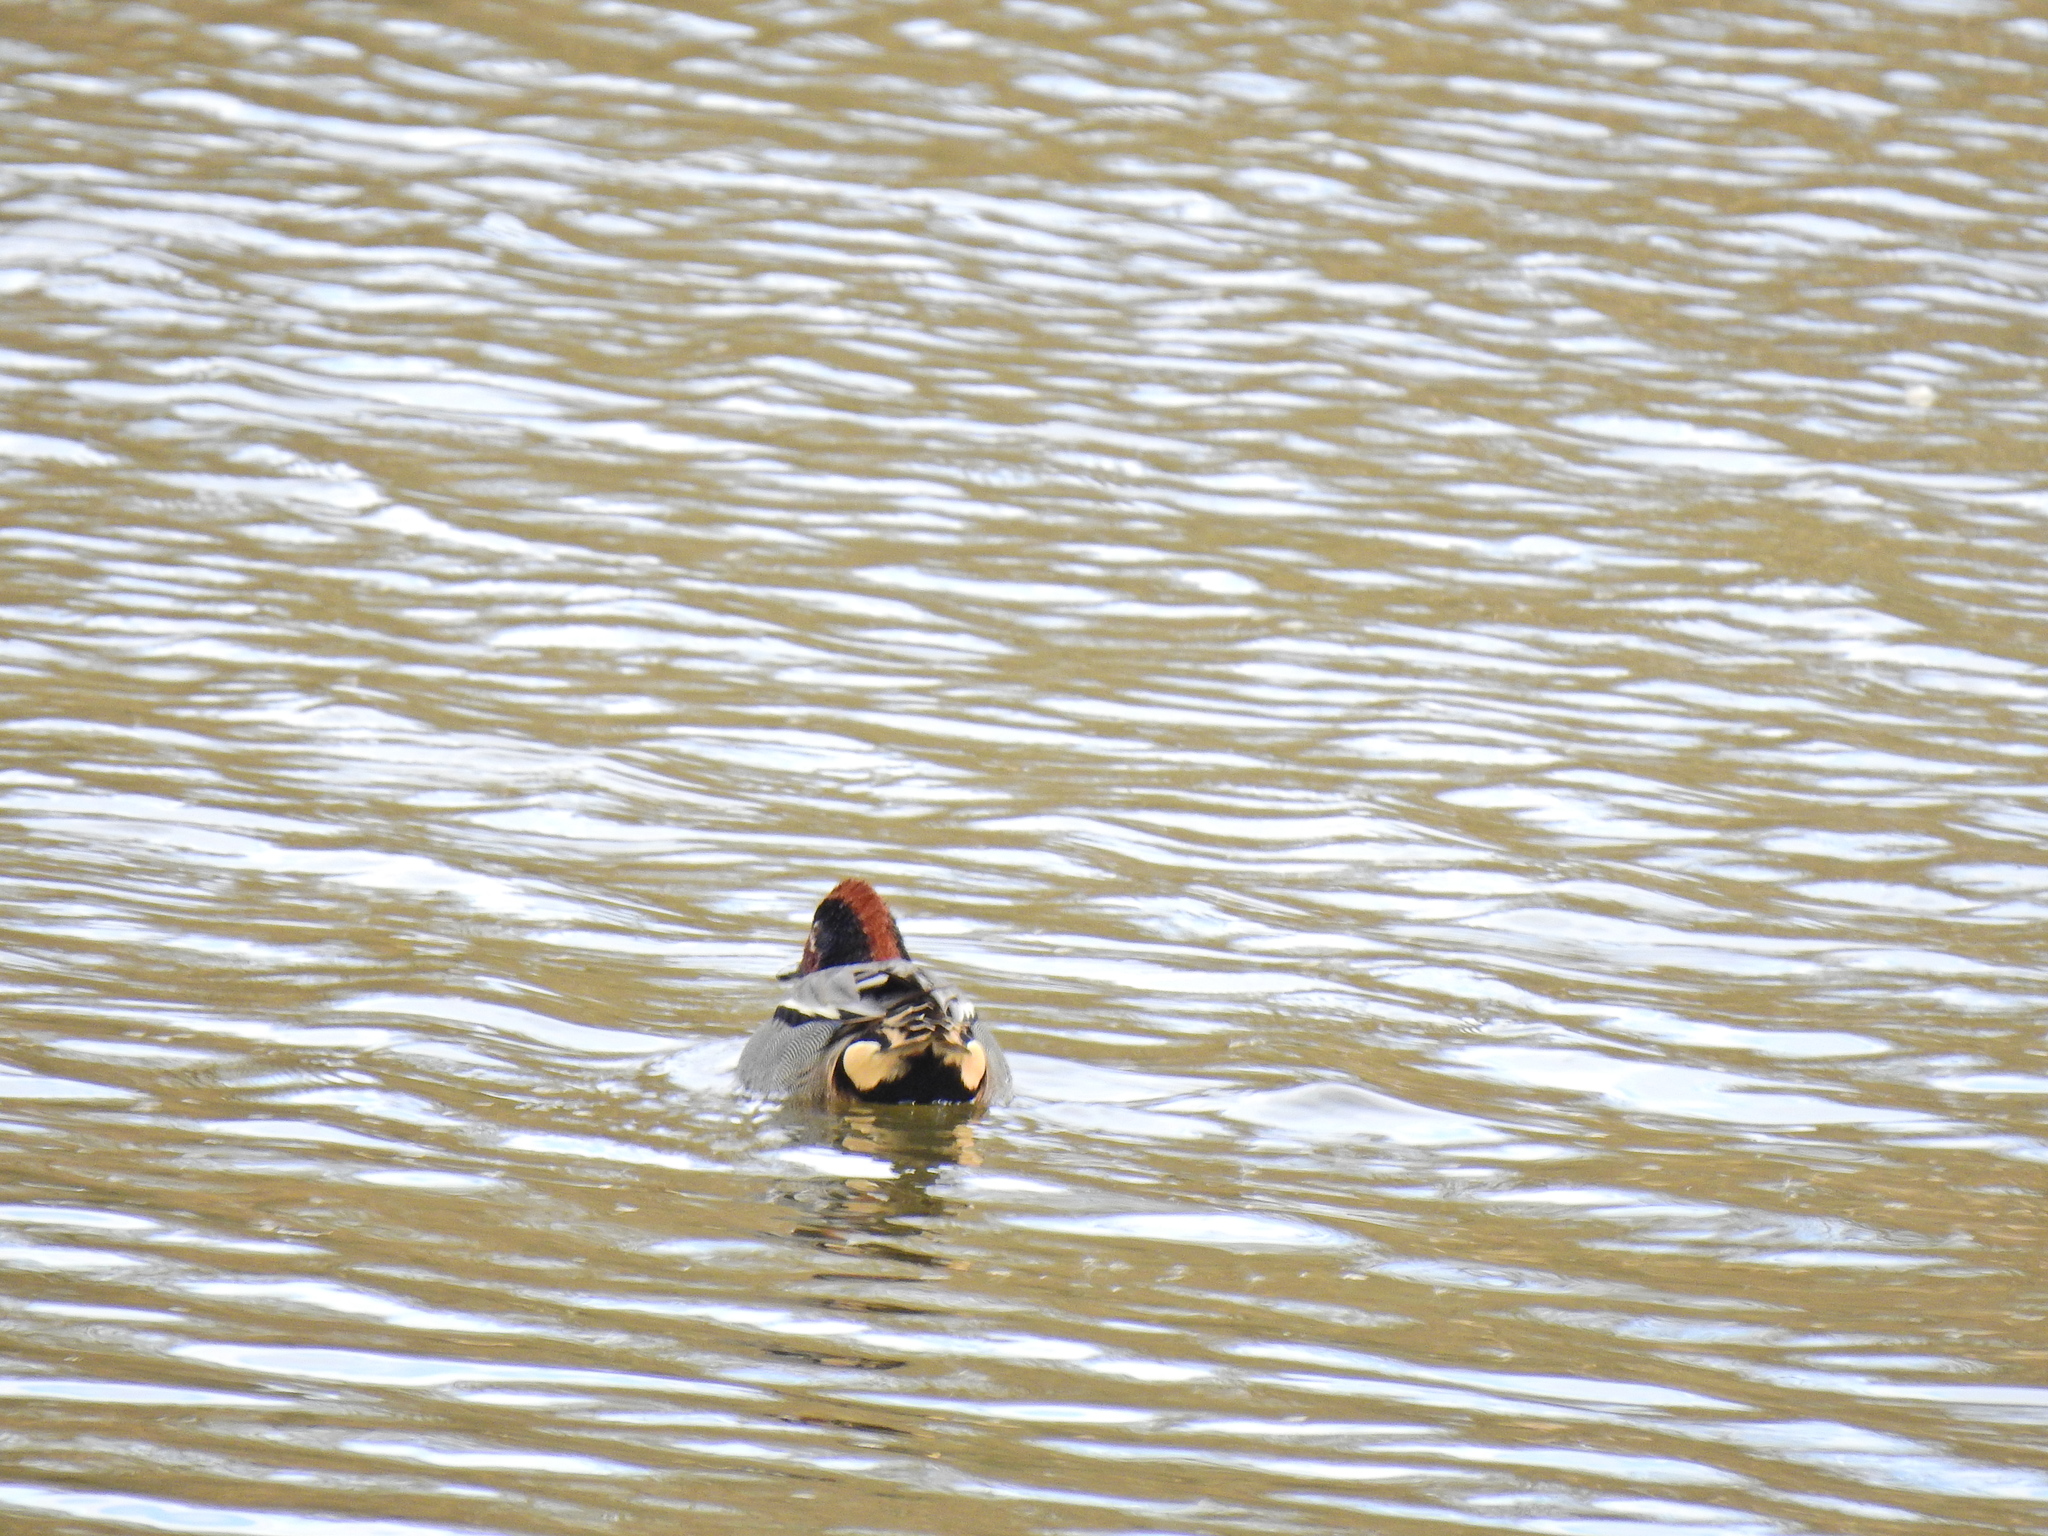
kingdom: Animalia
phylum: Chordata
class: Aves
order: Anseriformes
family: Anatidae
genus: Anas
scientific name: Anas crecca
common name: Eurasian teal
